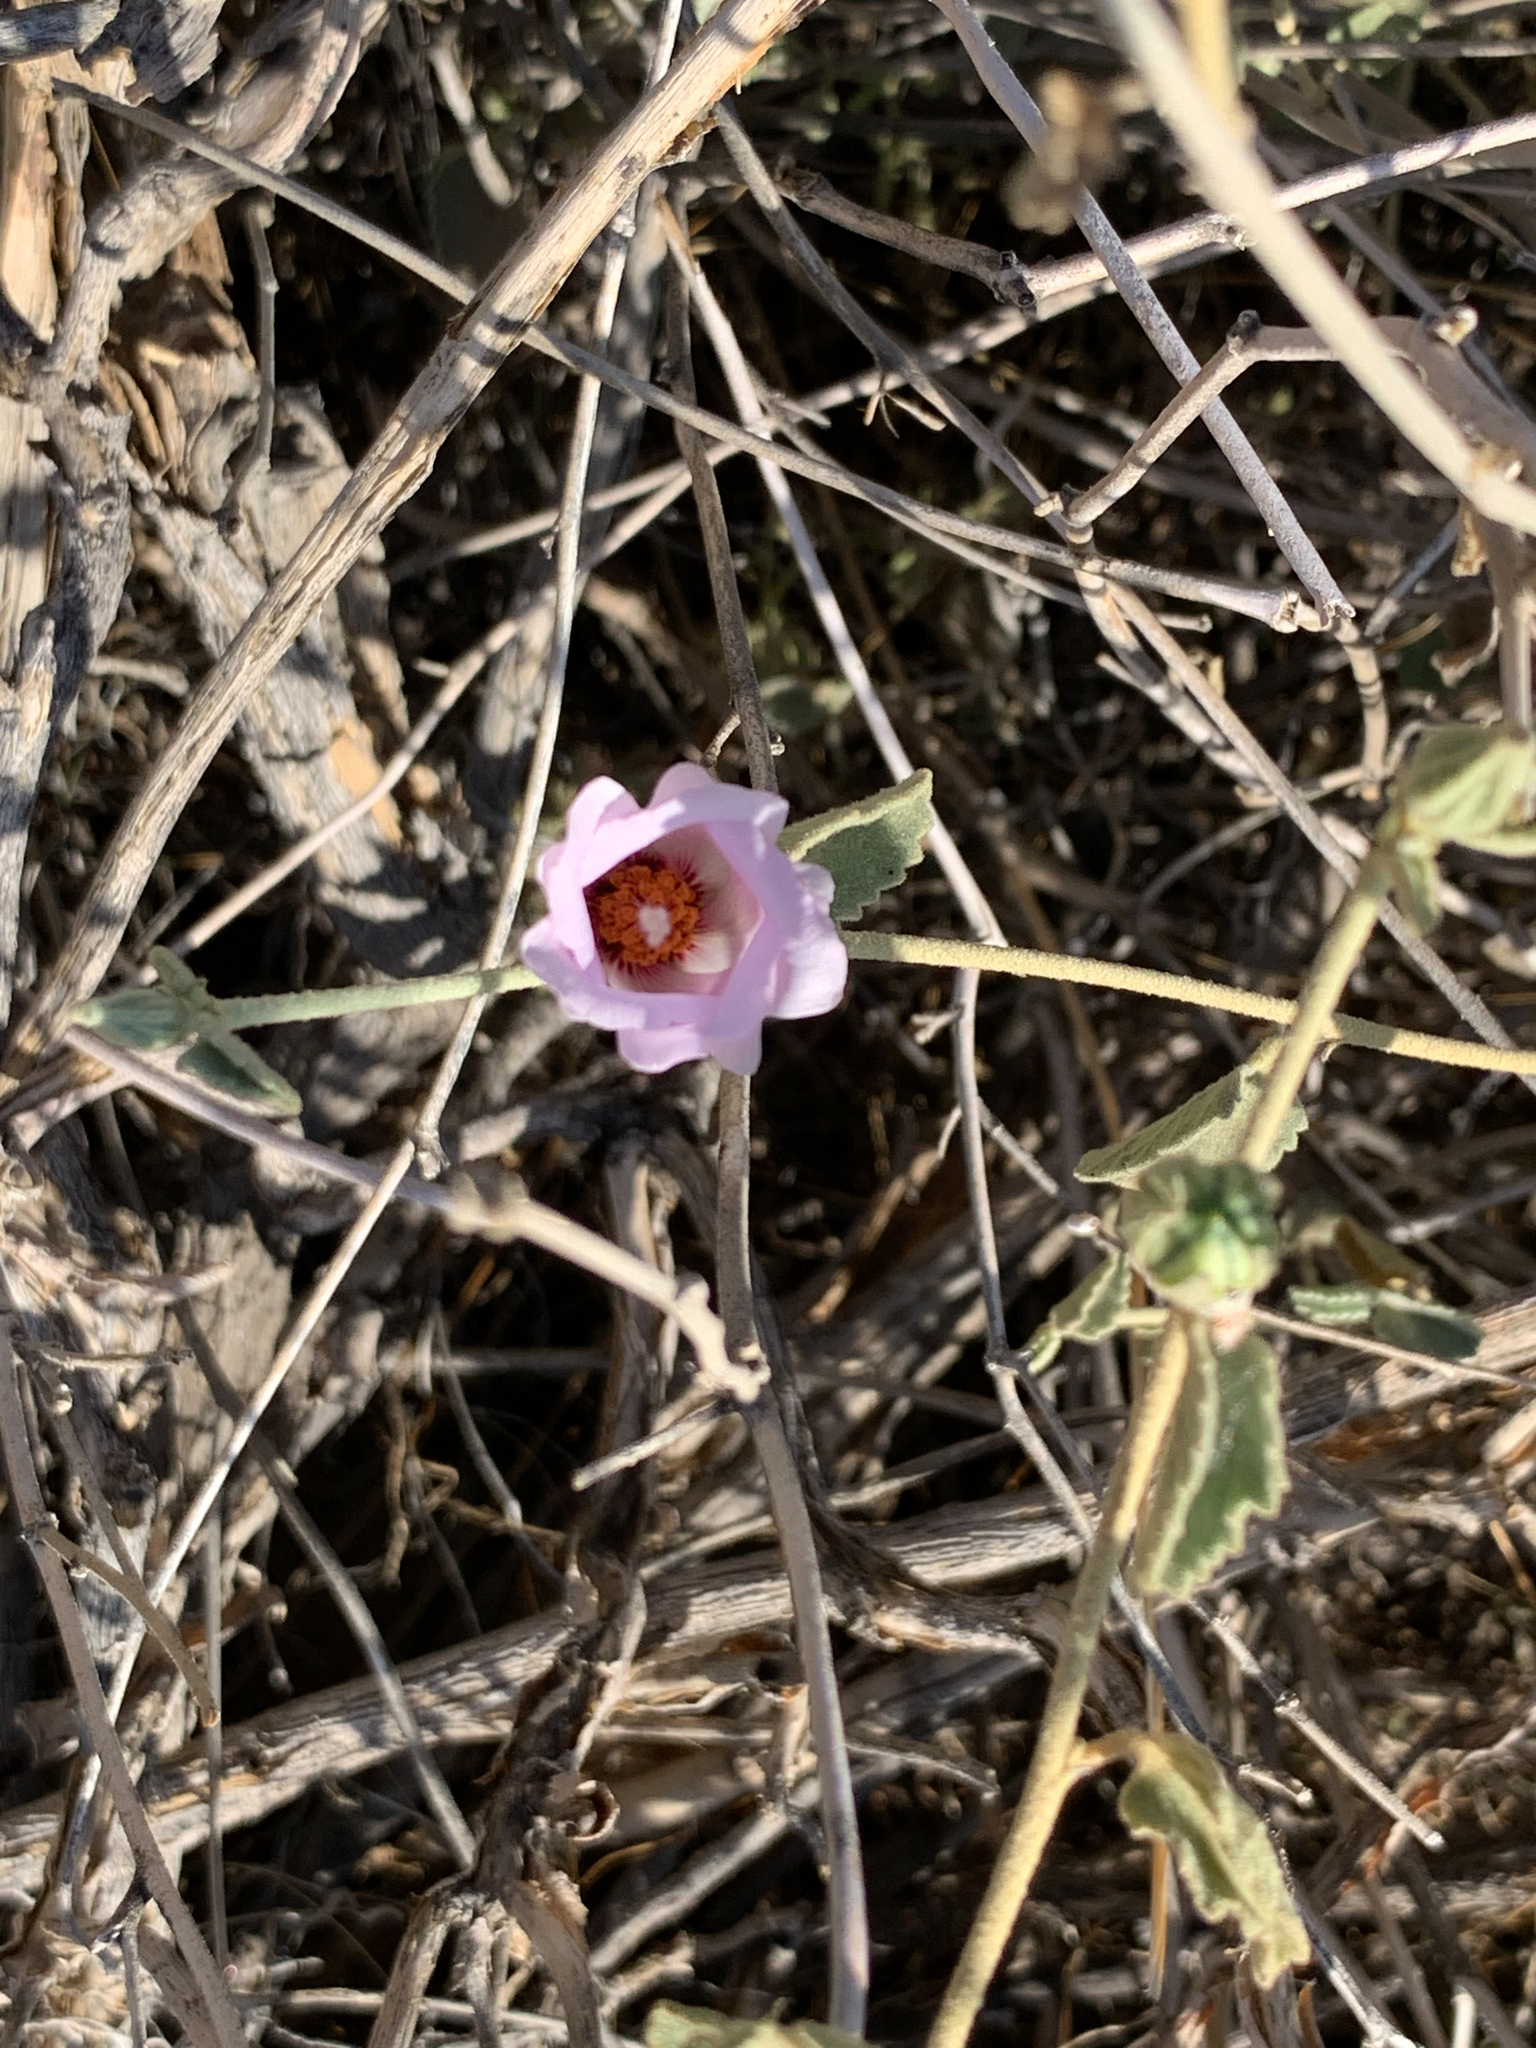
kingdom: Plantae
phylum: Tracheophyta
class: Magnoliopsida
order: Malvales
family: Malvaceae
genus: Hibiscus
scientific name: Hibiscus denudatus
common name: Paleface
